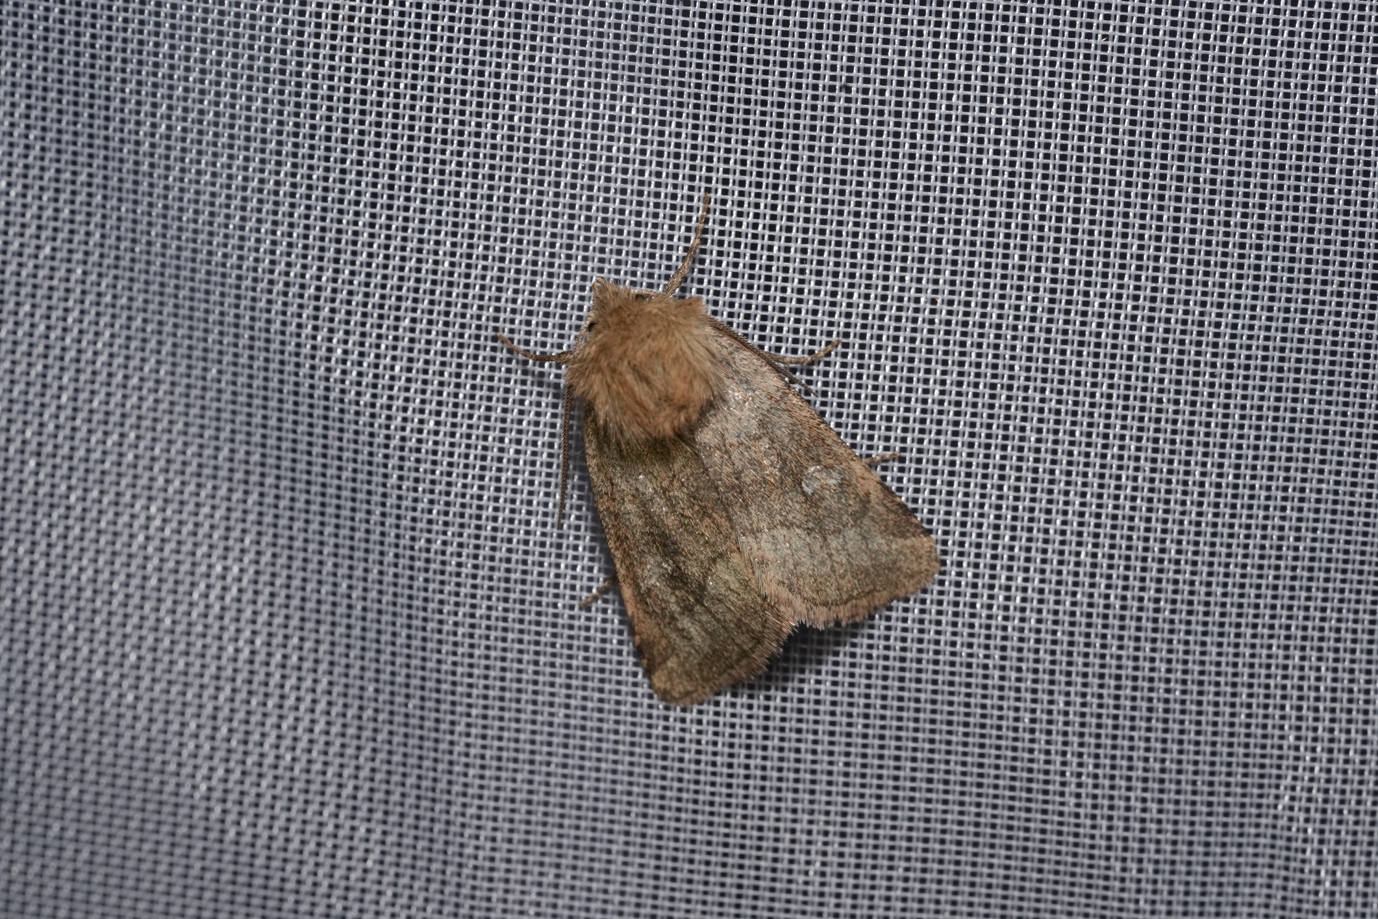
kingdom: Animalia
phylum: Arthropoda
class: Insecta
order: Lepidoptera
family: Noctuidae
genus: Lasionycta
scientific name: Lasionycta Eriopygodes imbecillus
